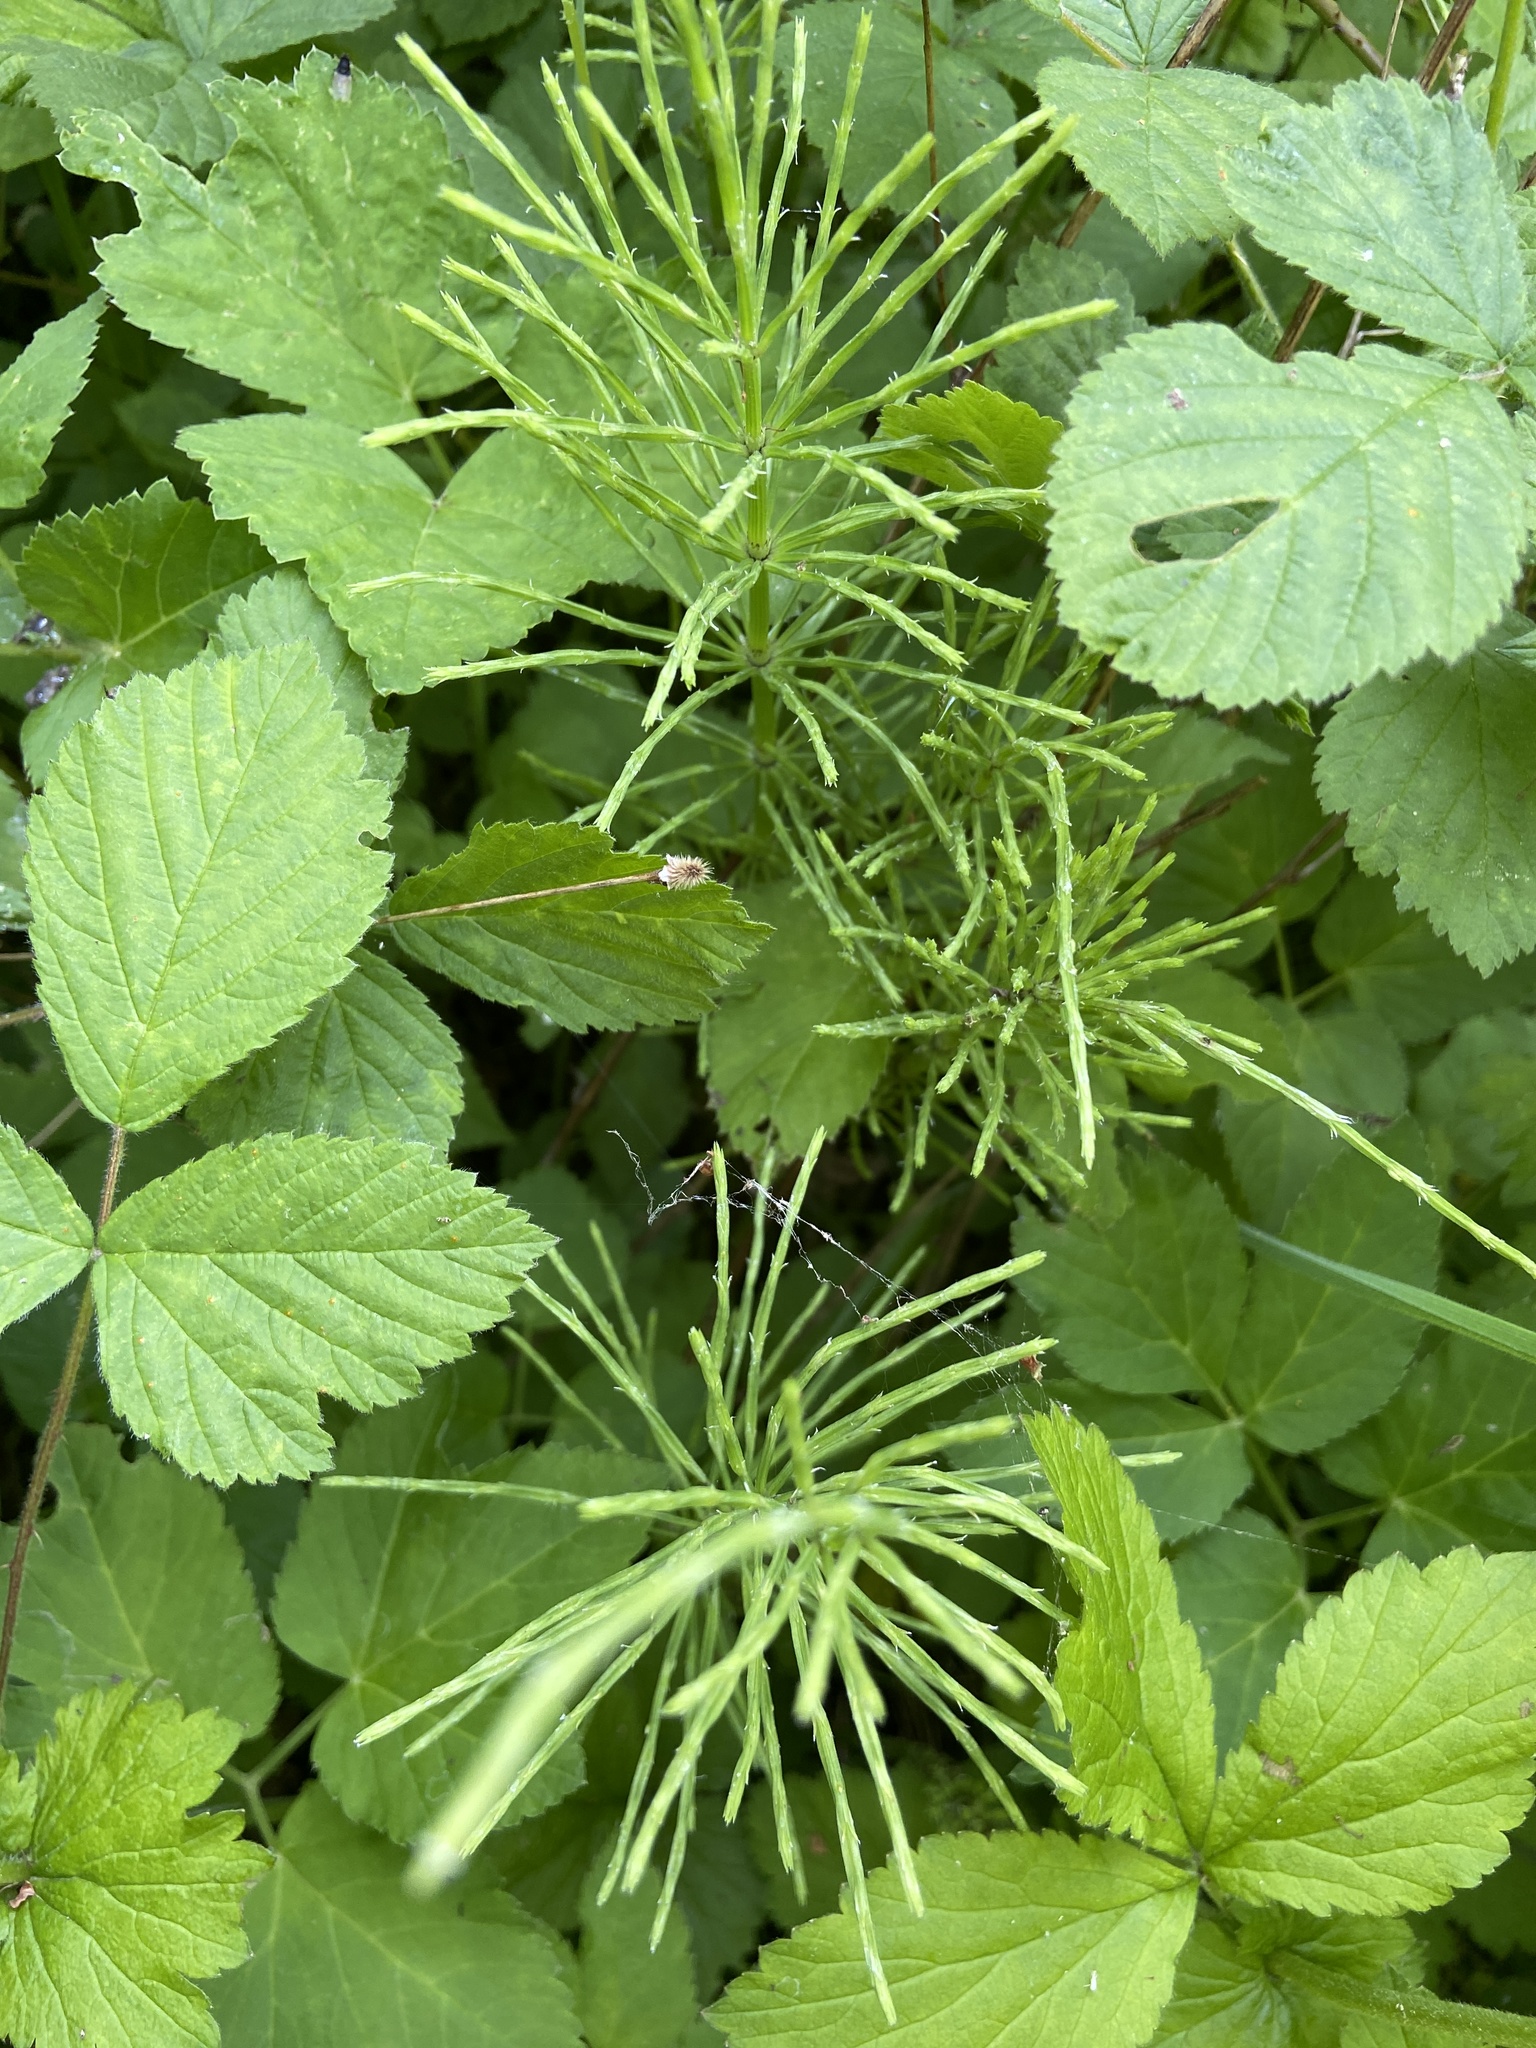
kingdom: Plantae
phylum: Tracheophyta
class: Polypodiopsida
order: Equisetales
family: Equisetaceae
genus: Equisetum
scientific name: Equisetum arvense
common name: Field horsetail
